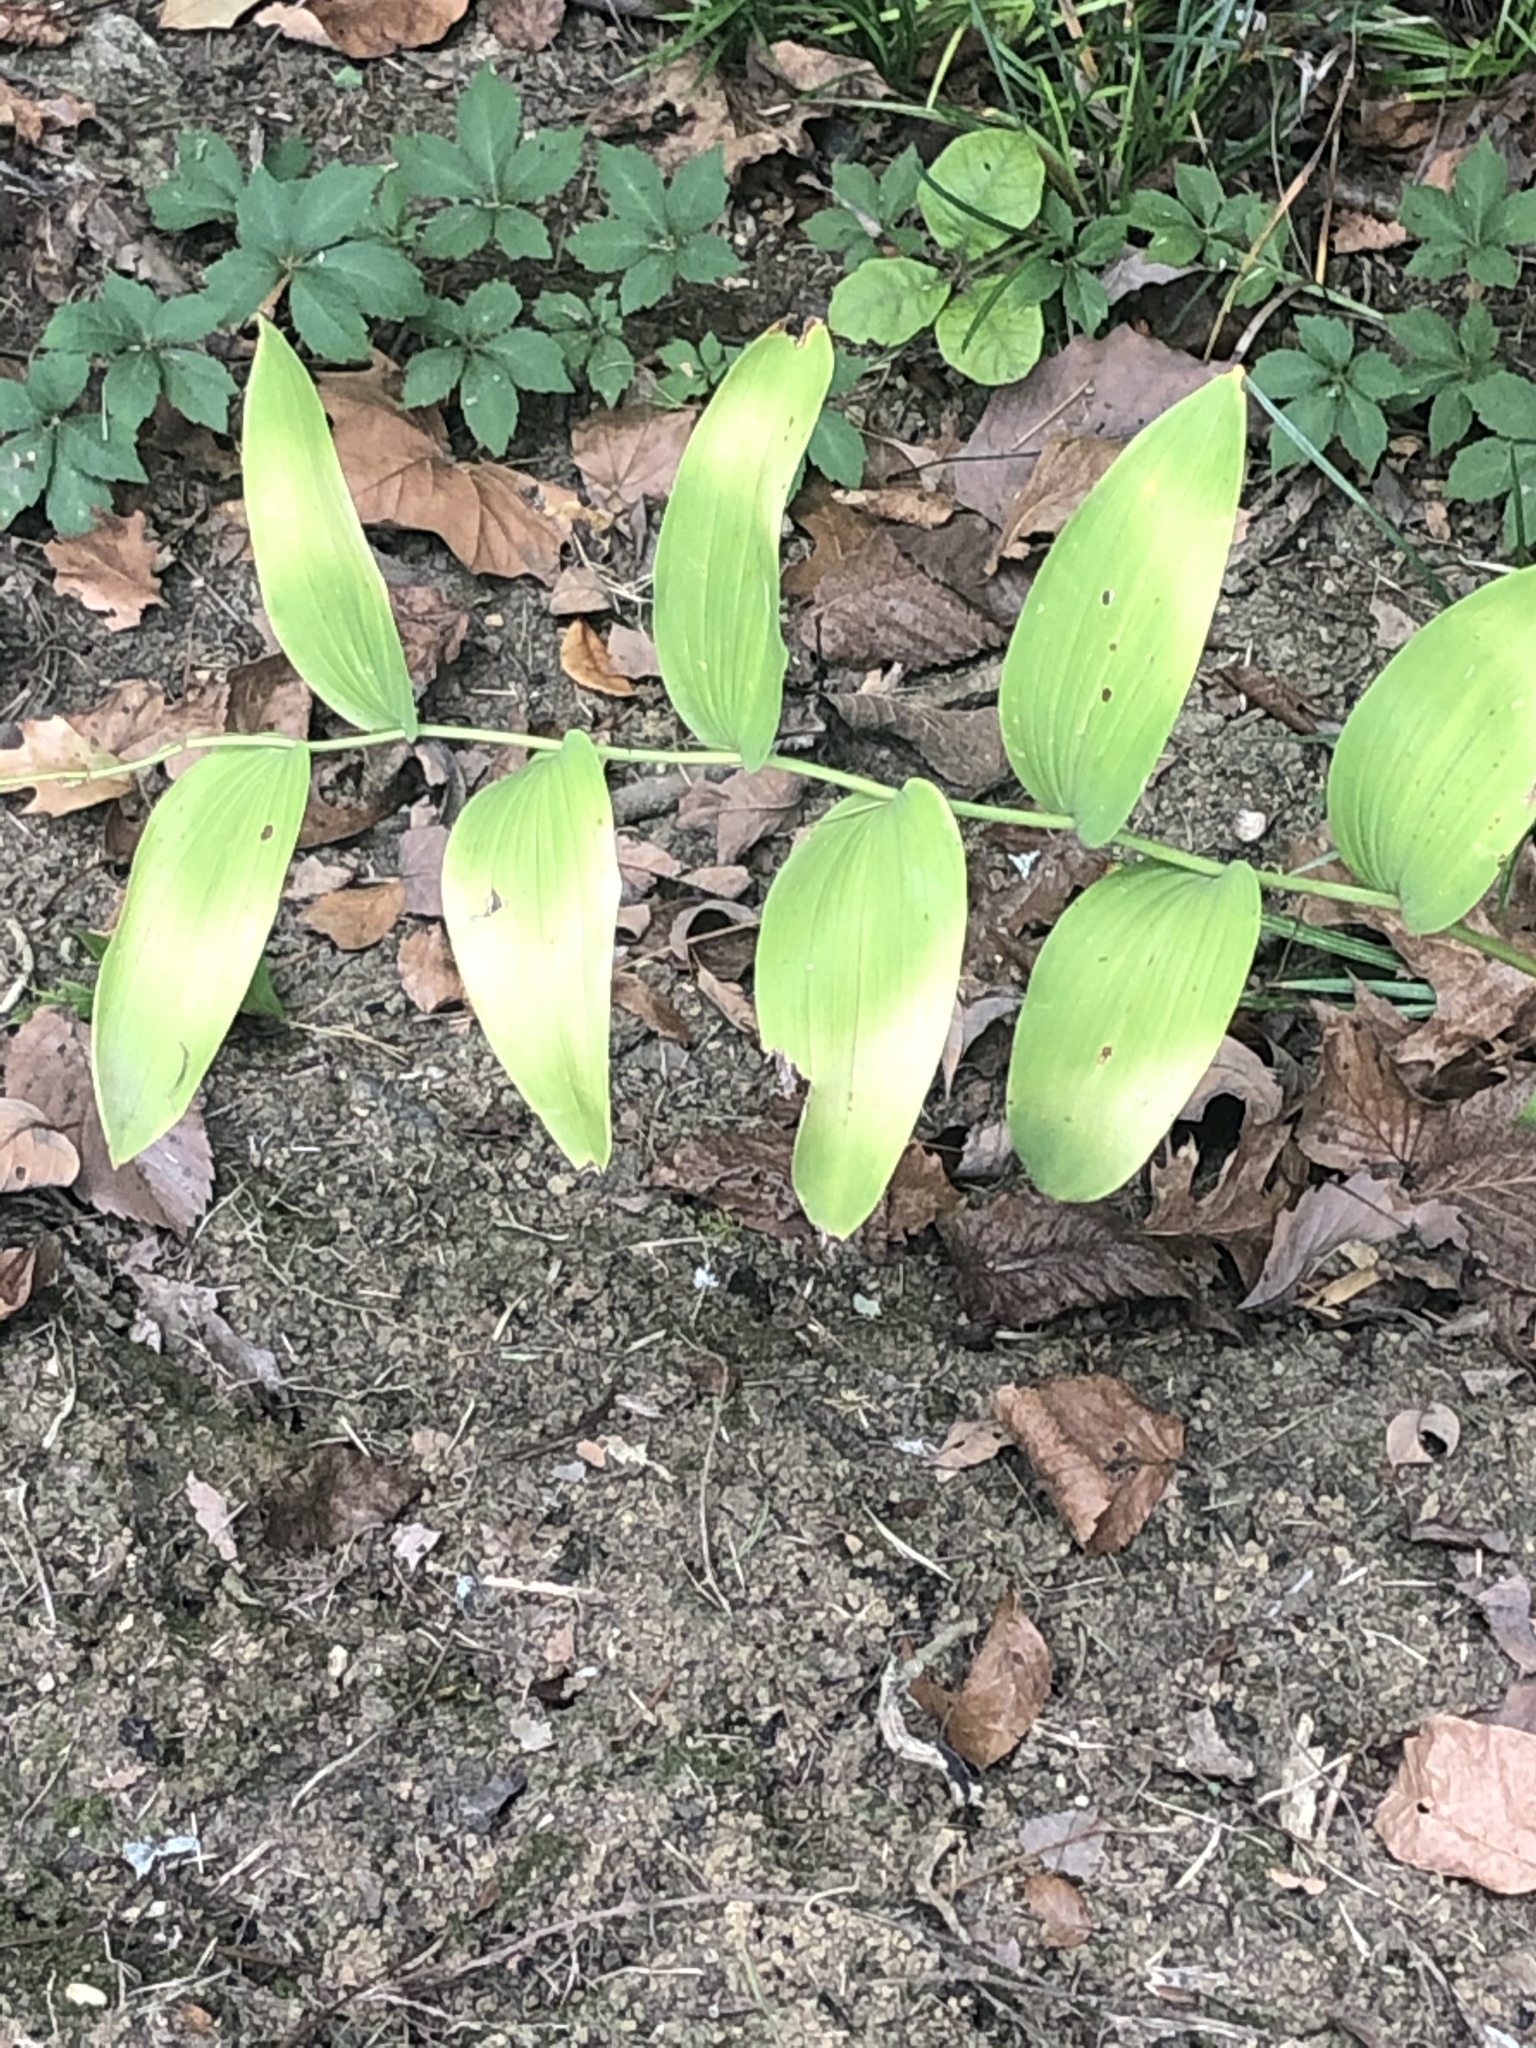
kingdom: Plantae
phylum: Tracheophyta
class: Liliopsida
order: Asparagales
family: Asparagaceae
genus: Polygonatum
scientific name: Polygonatum biflorum
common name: American solomon's-seal
